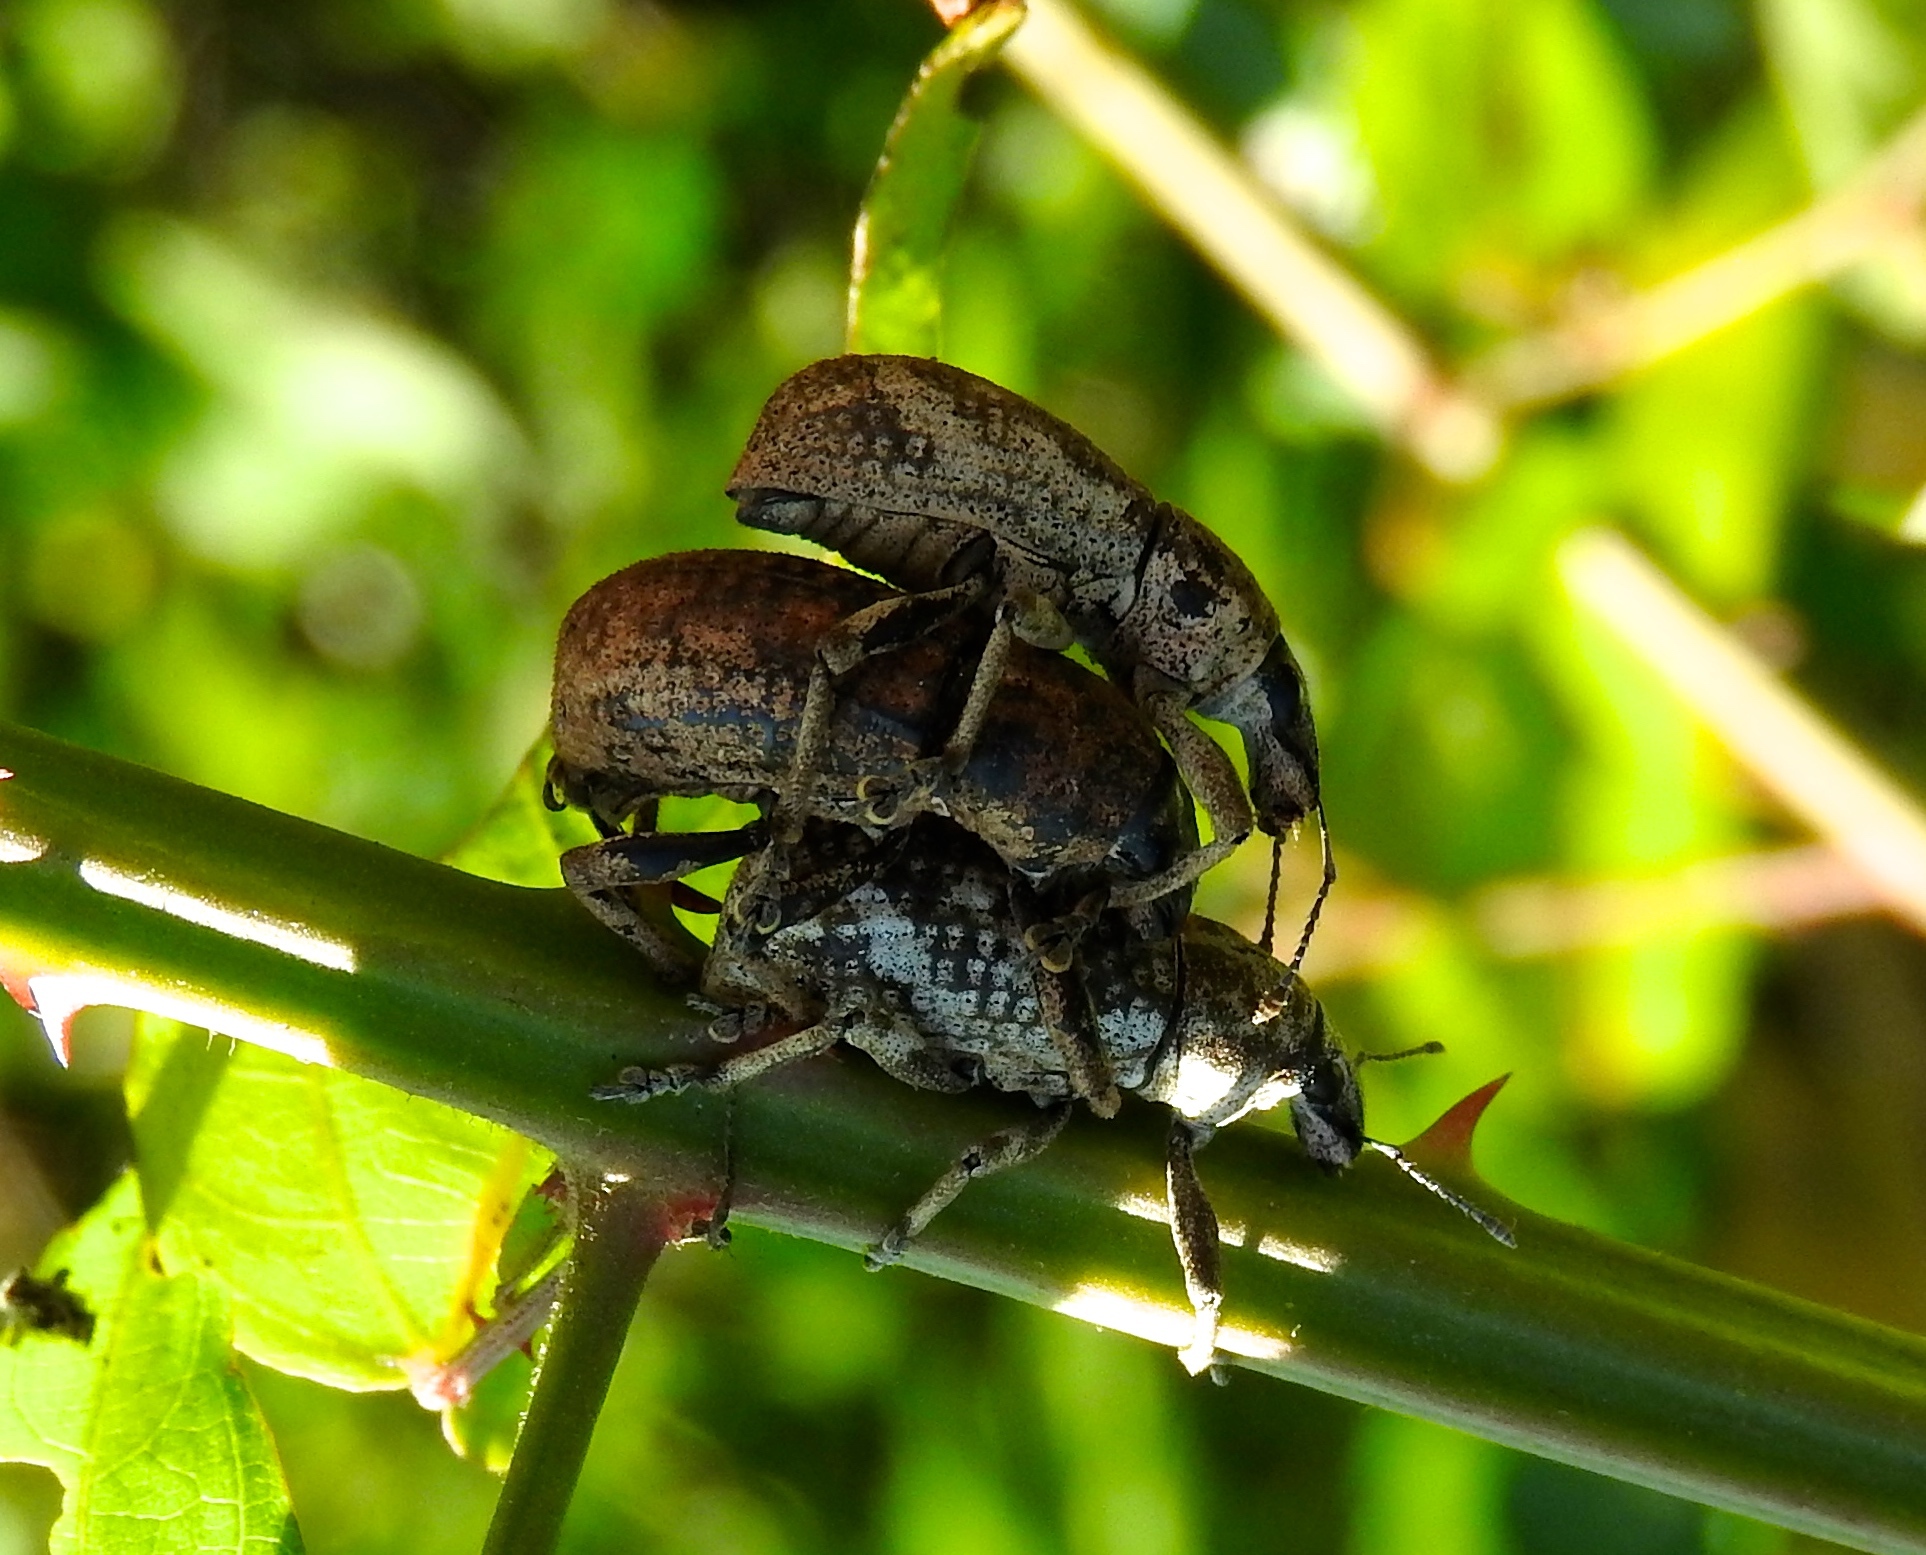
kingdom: Animalia
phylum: Arthropoda
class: Insecta
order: Coleoptera
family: Curculionidae
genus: Epicaerus
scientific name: Epicaerus
